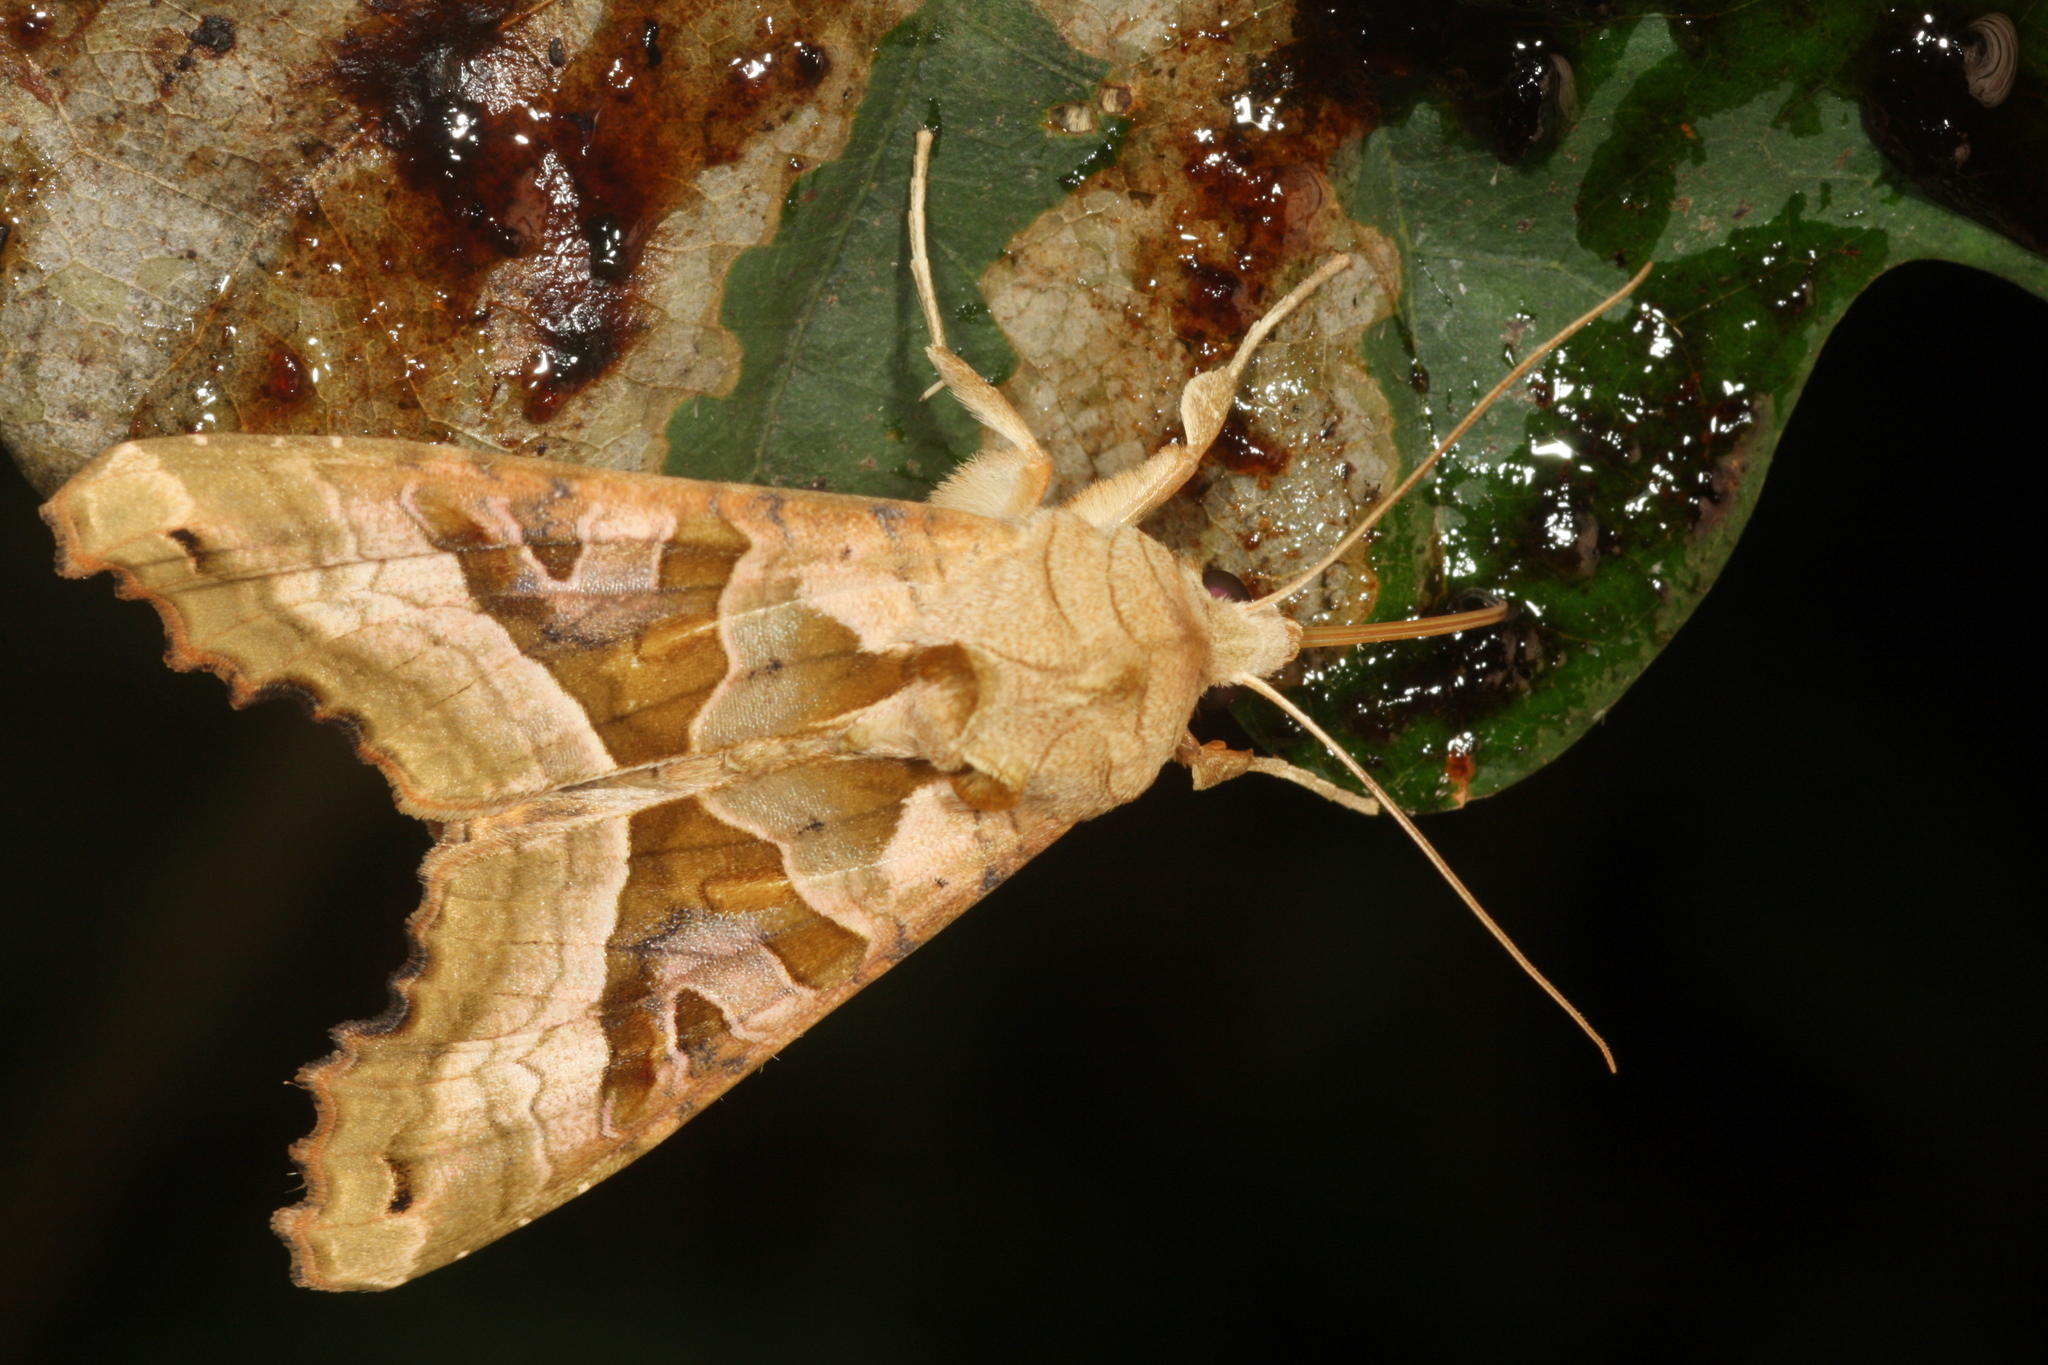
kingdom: Animalia
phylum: Arthropoda
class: Insecta
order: Lepidoptera
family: Noctuidae
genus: Phlogophora
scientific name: Phlogophora meticulosa
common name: Angle shades
